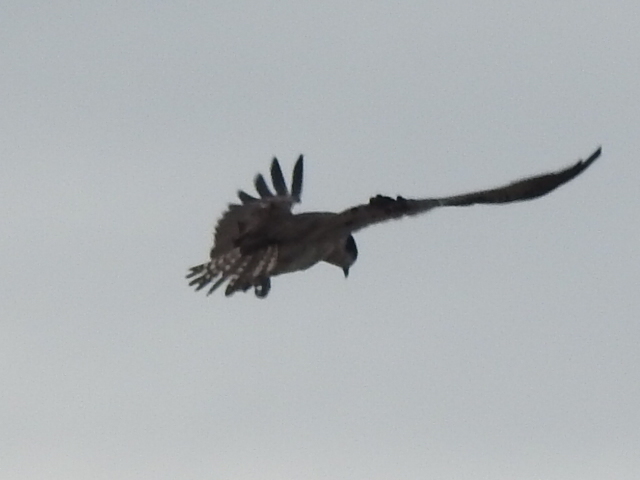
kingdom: Animalia
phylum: Chordata
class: Aves
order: Accipitriformes
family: Pandionidae
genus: Pandion
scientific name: Pandion haliaetus
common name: Osprey
